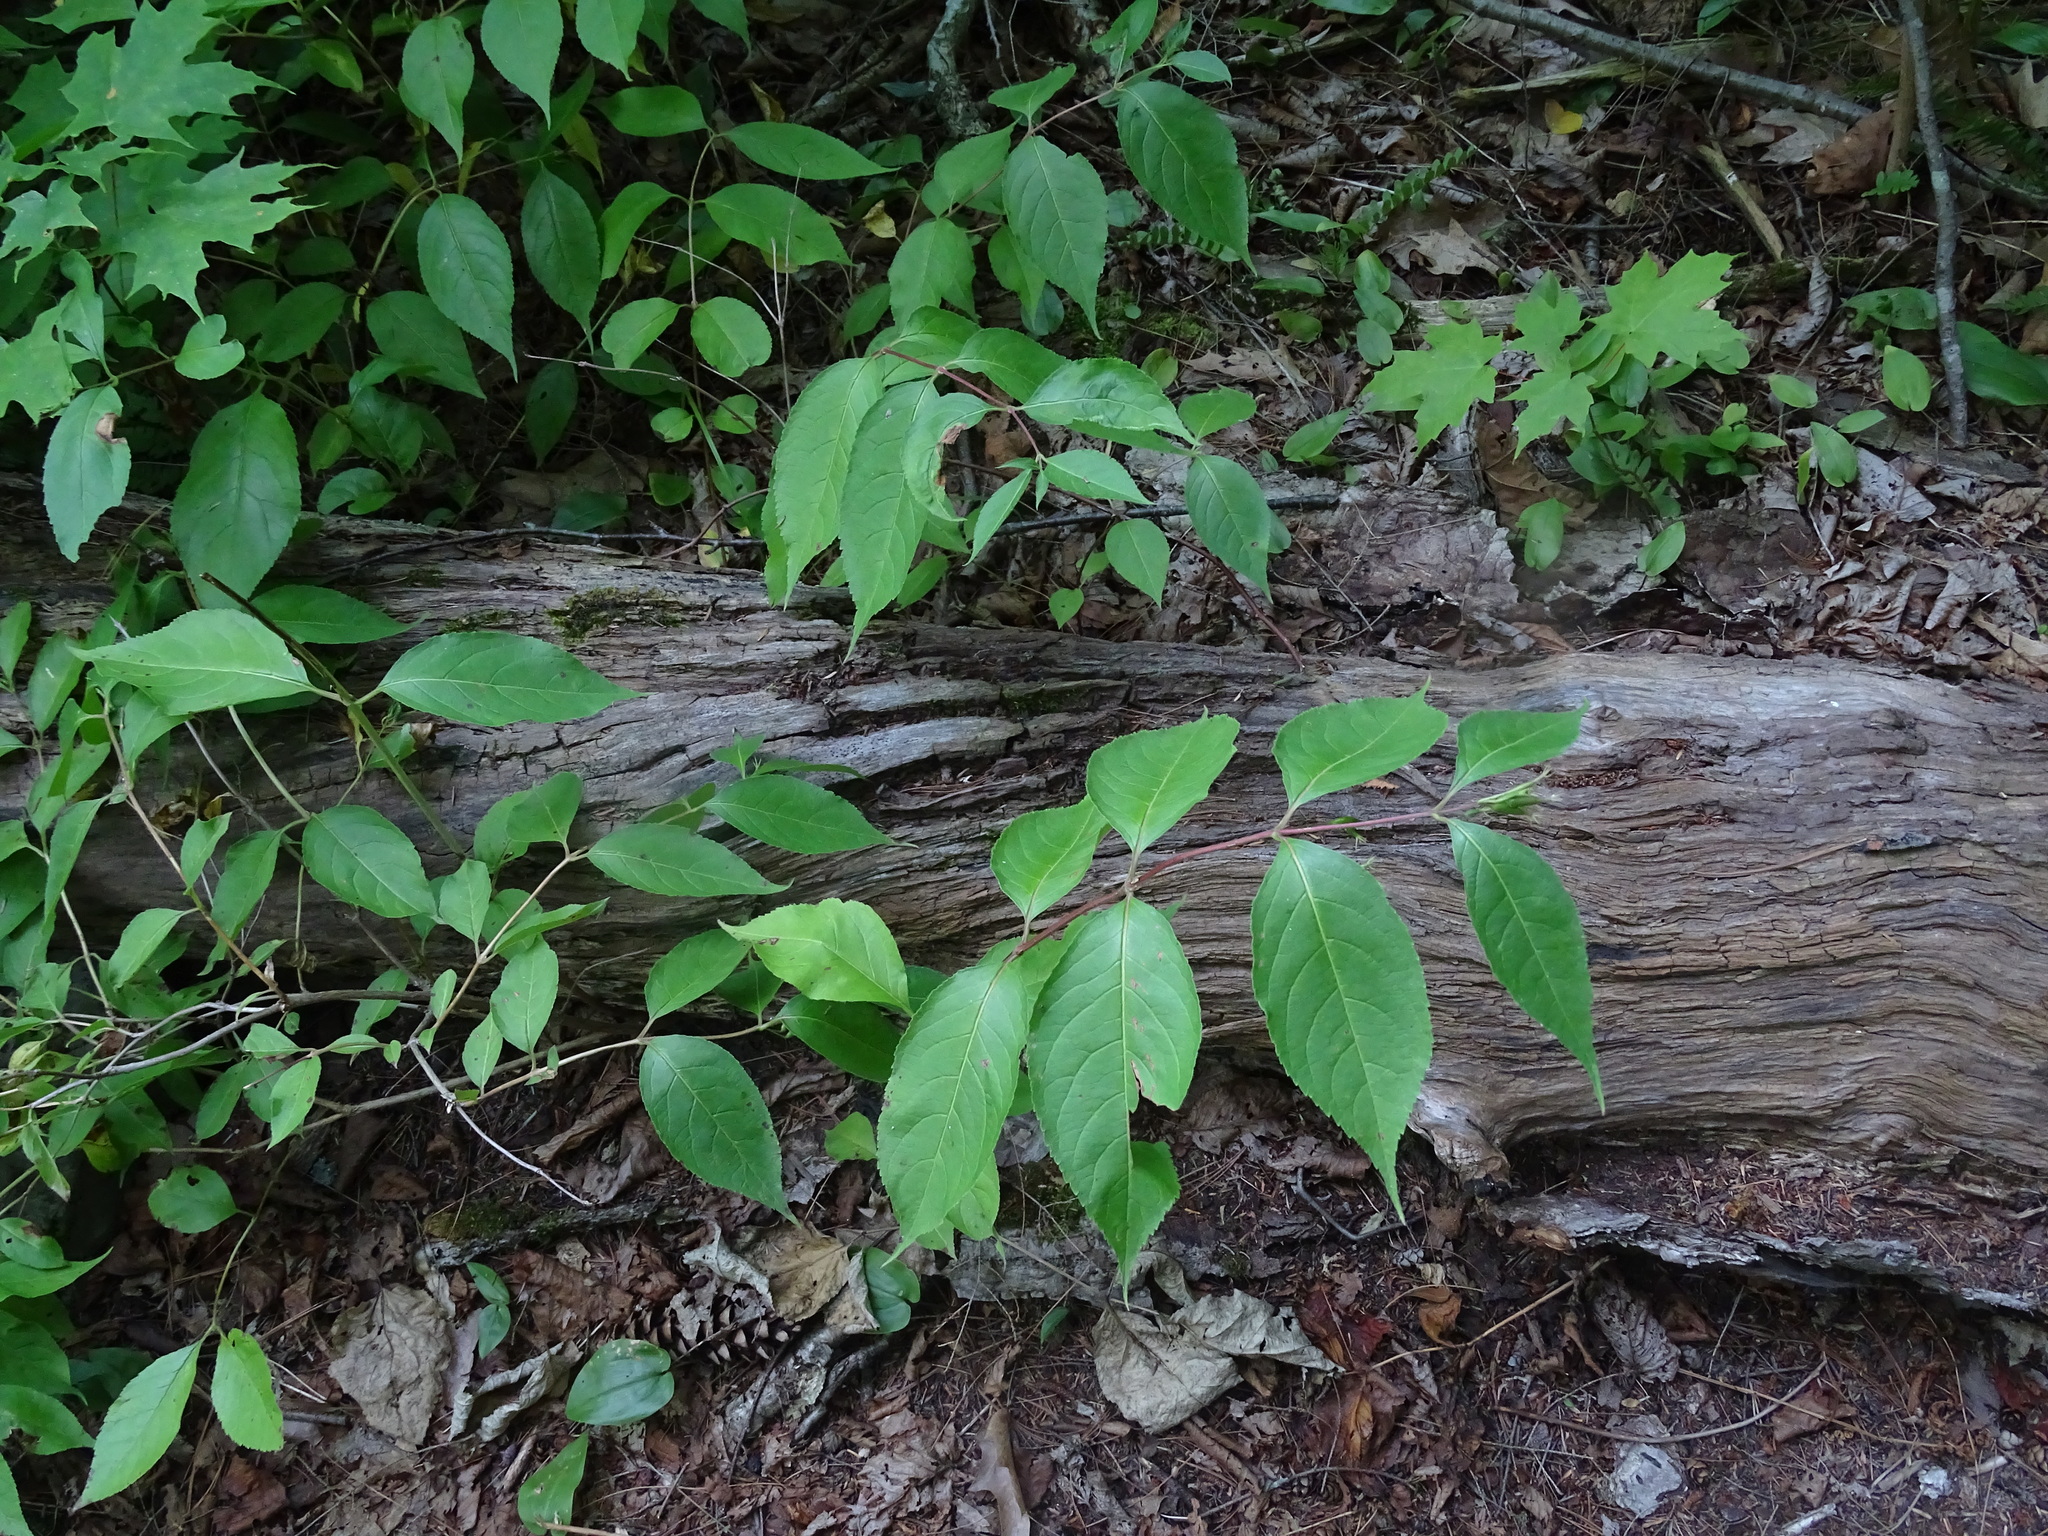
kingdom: Plantae
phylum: Tracheophyta
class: Magnoliopsida
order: Dipsacales
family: Caprifoliaceae
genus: Diervilla
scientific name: Diervilla lonicera
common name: Bush-honeysuckle
